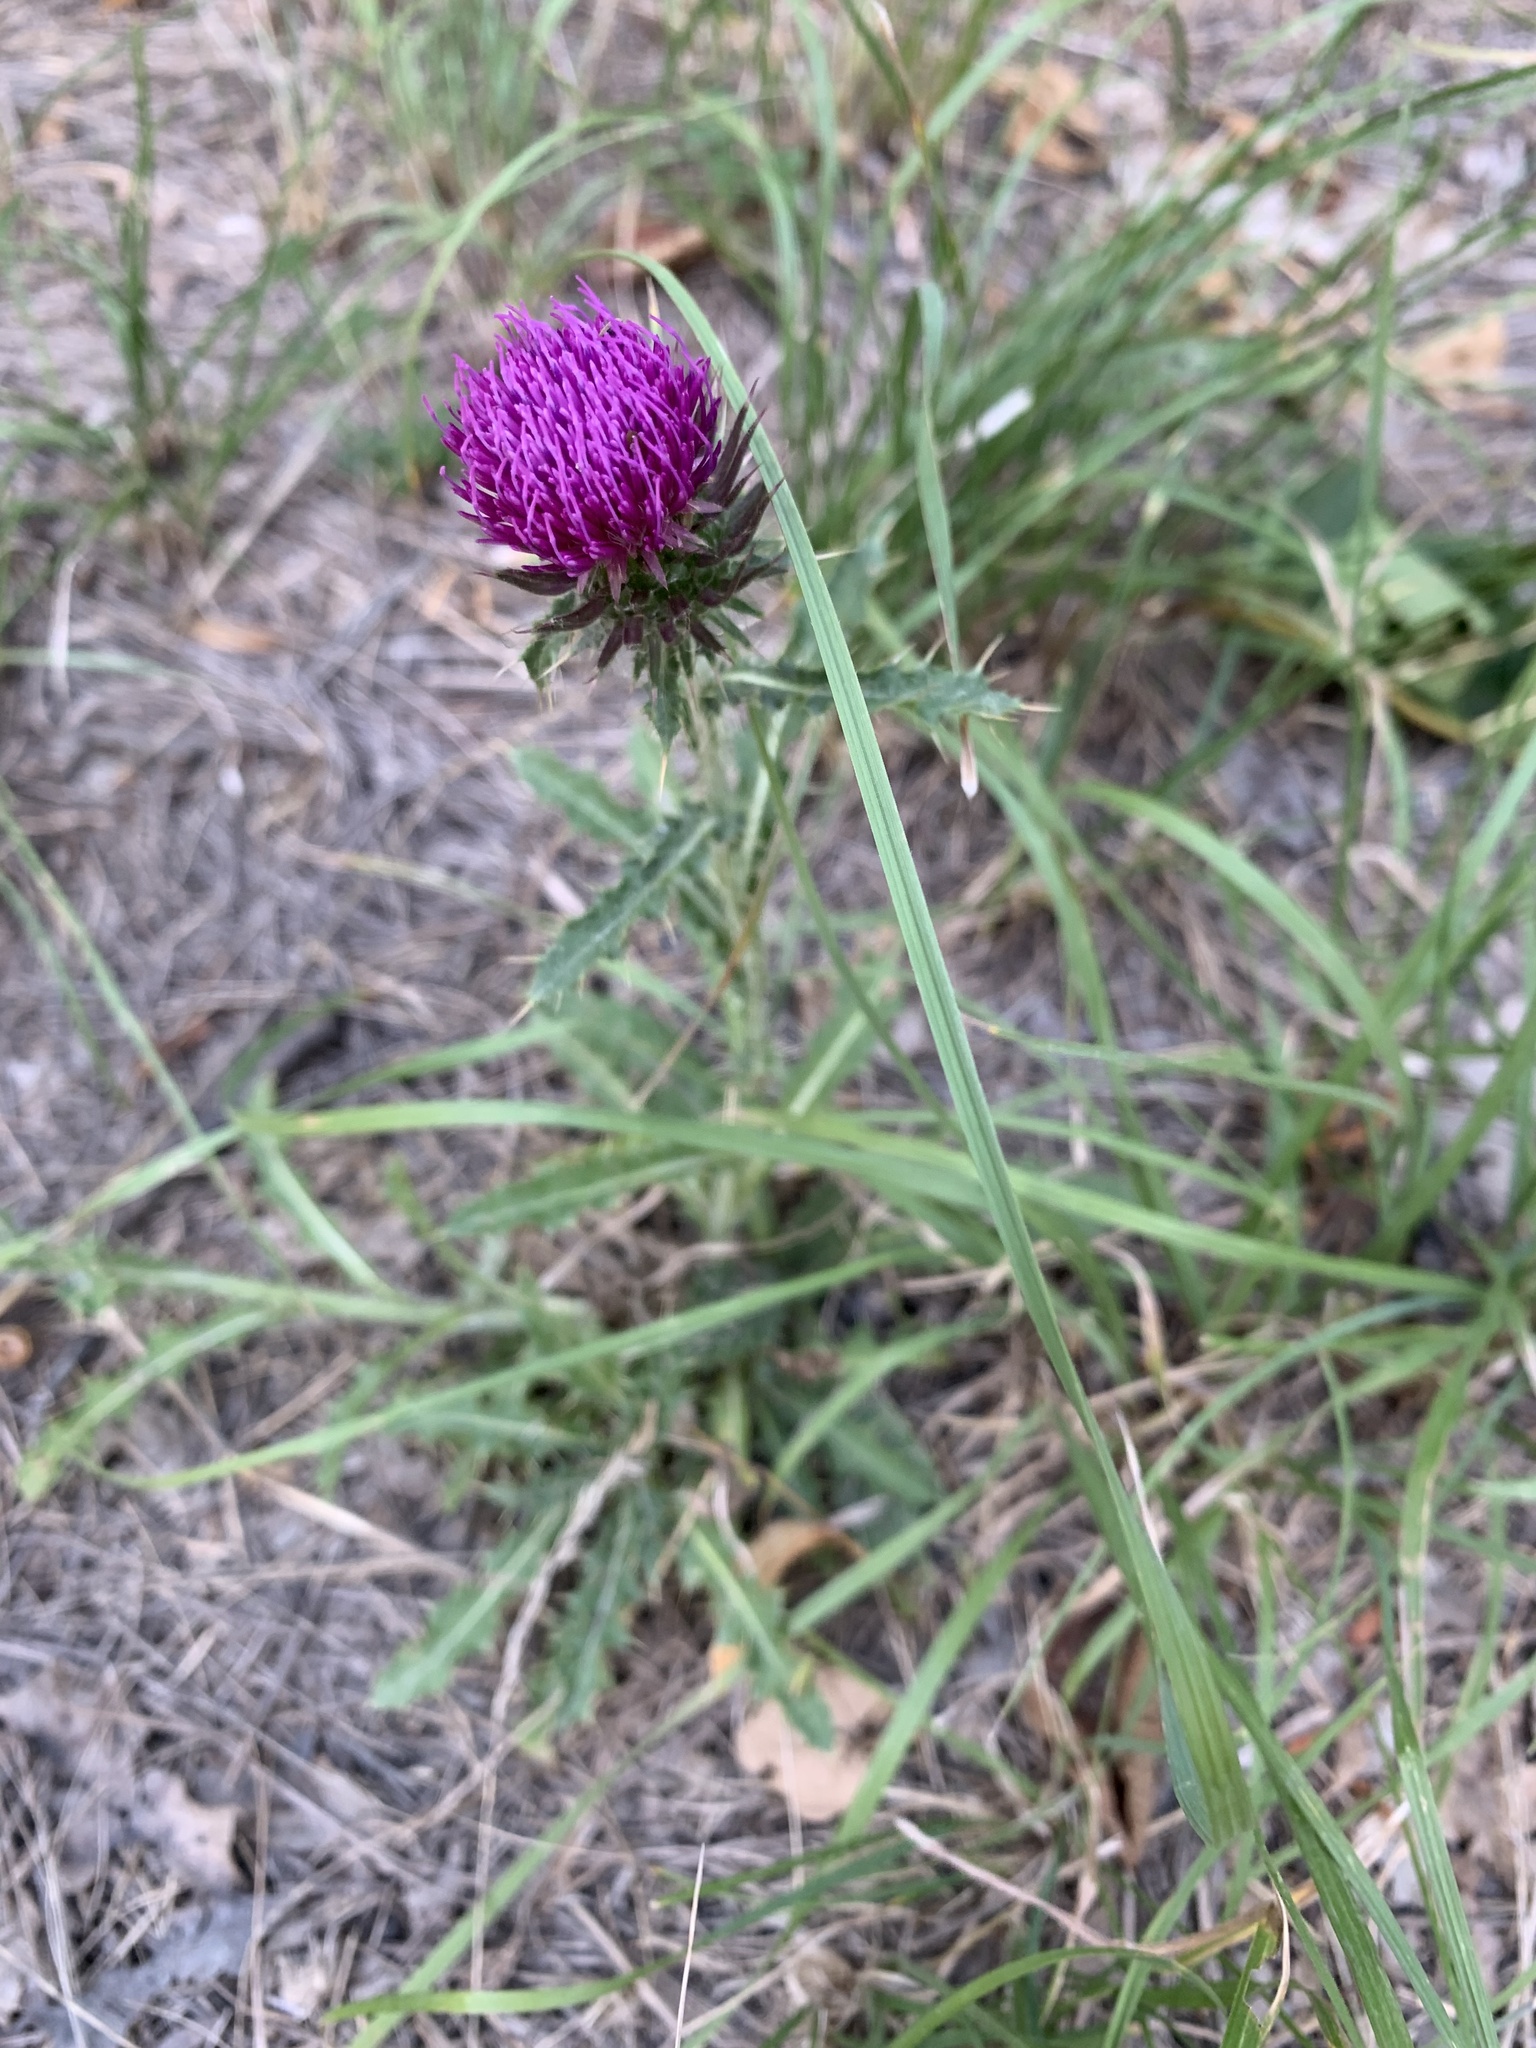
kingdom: Plantae
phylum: Tracheophyta
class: Magnoliopsida
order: Asterales
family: Asteraceae
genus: Carduus
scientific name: Carduus defloratus
